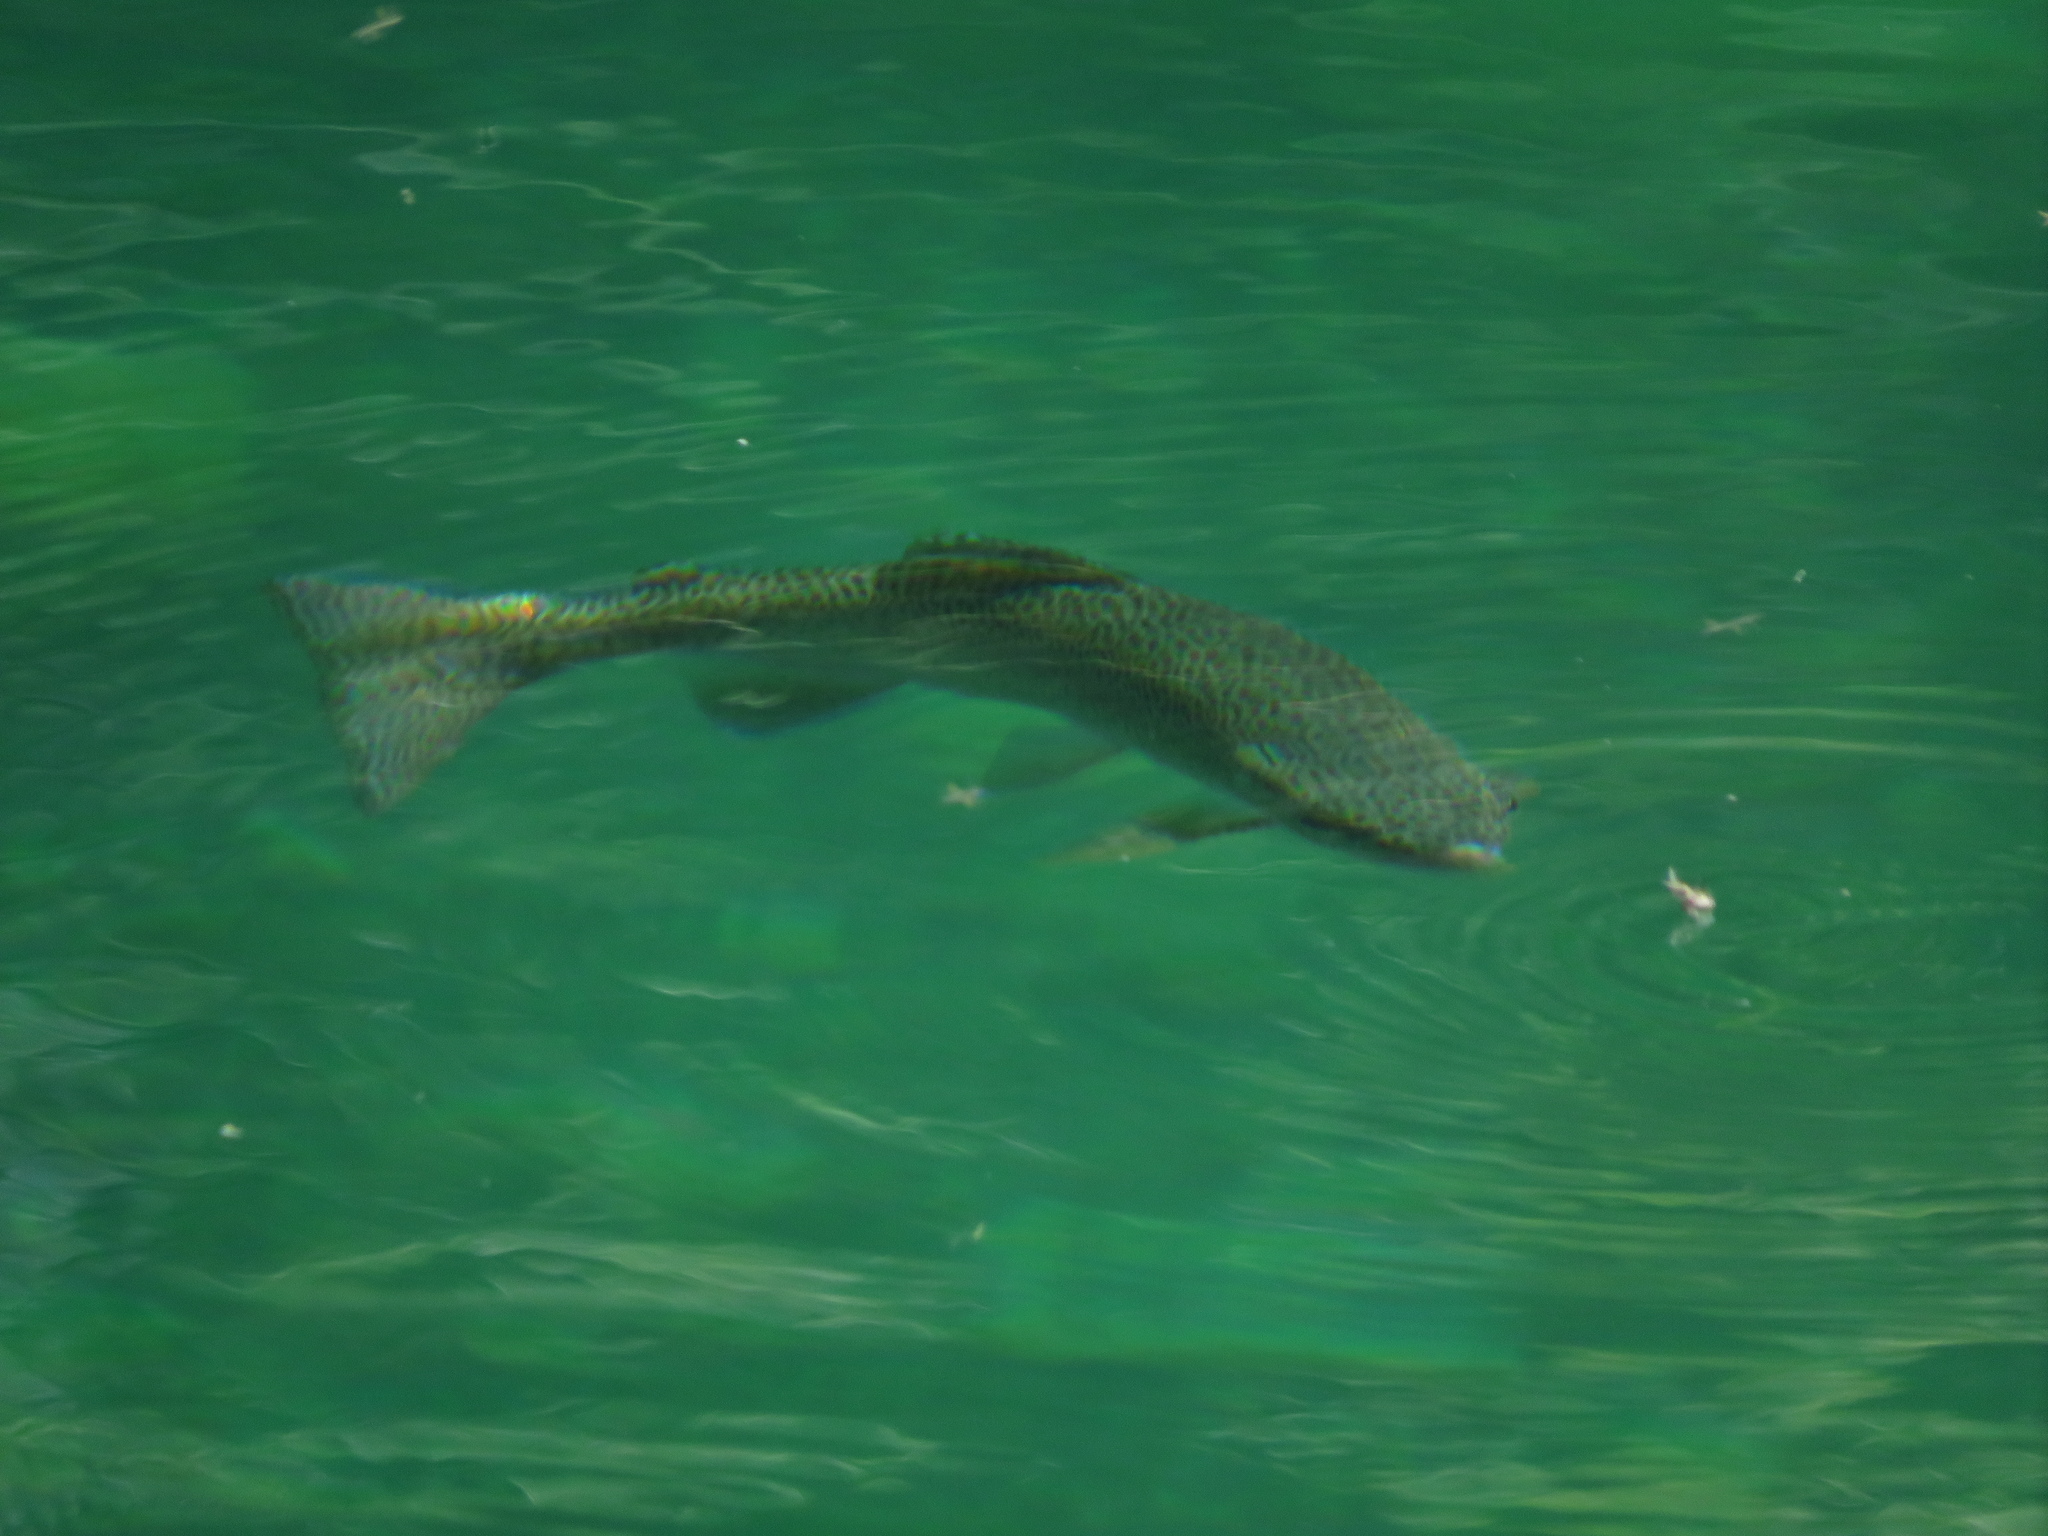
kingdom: Animalia
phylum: Chordata
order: Salmoniformes
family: Salmonidae
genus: Oncorhynchus
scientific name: Oncorhynchus mykiss
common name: Rainbow trout
